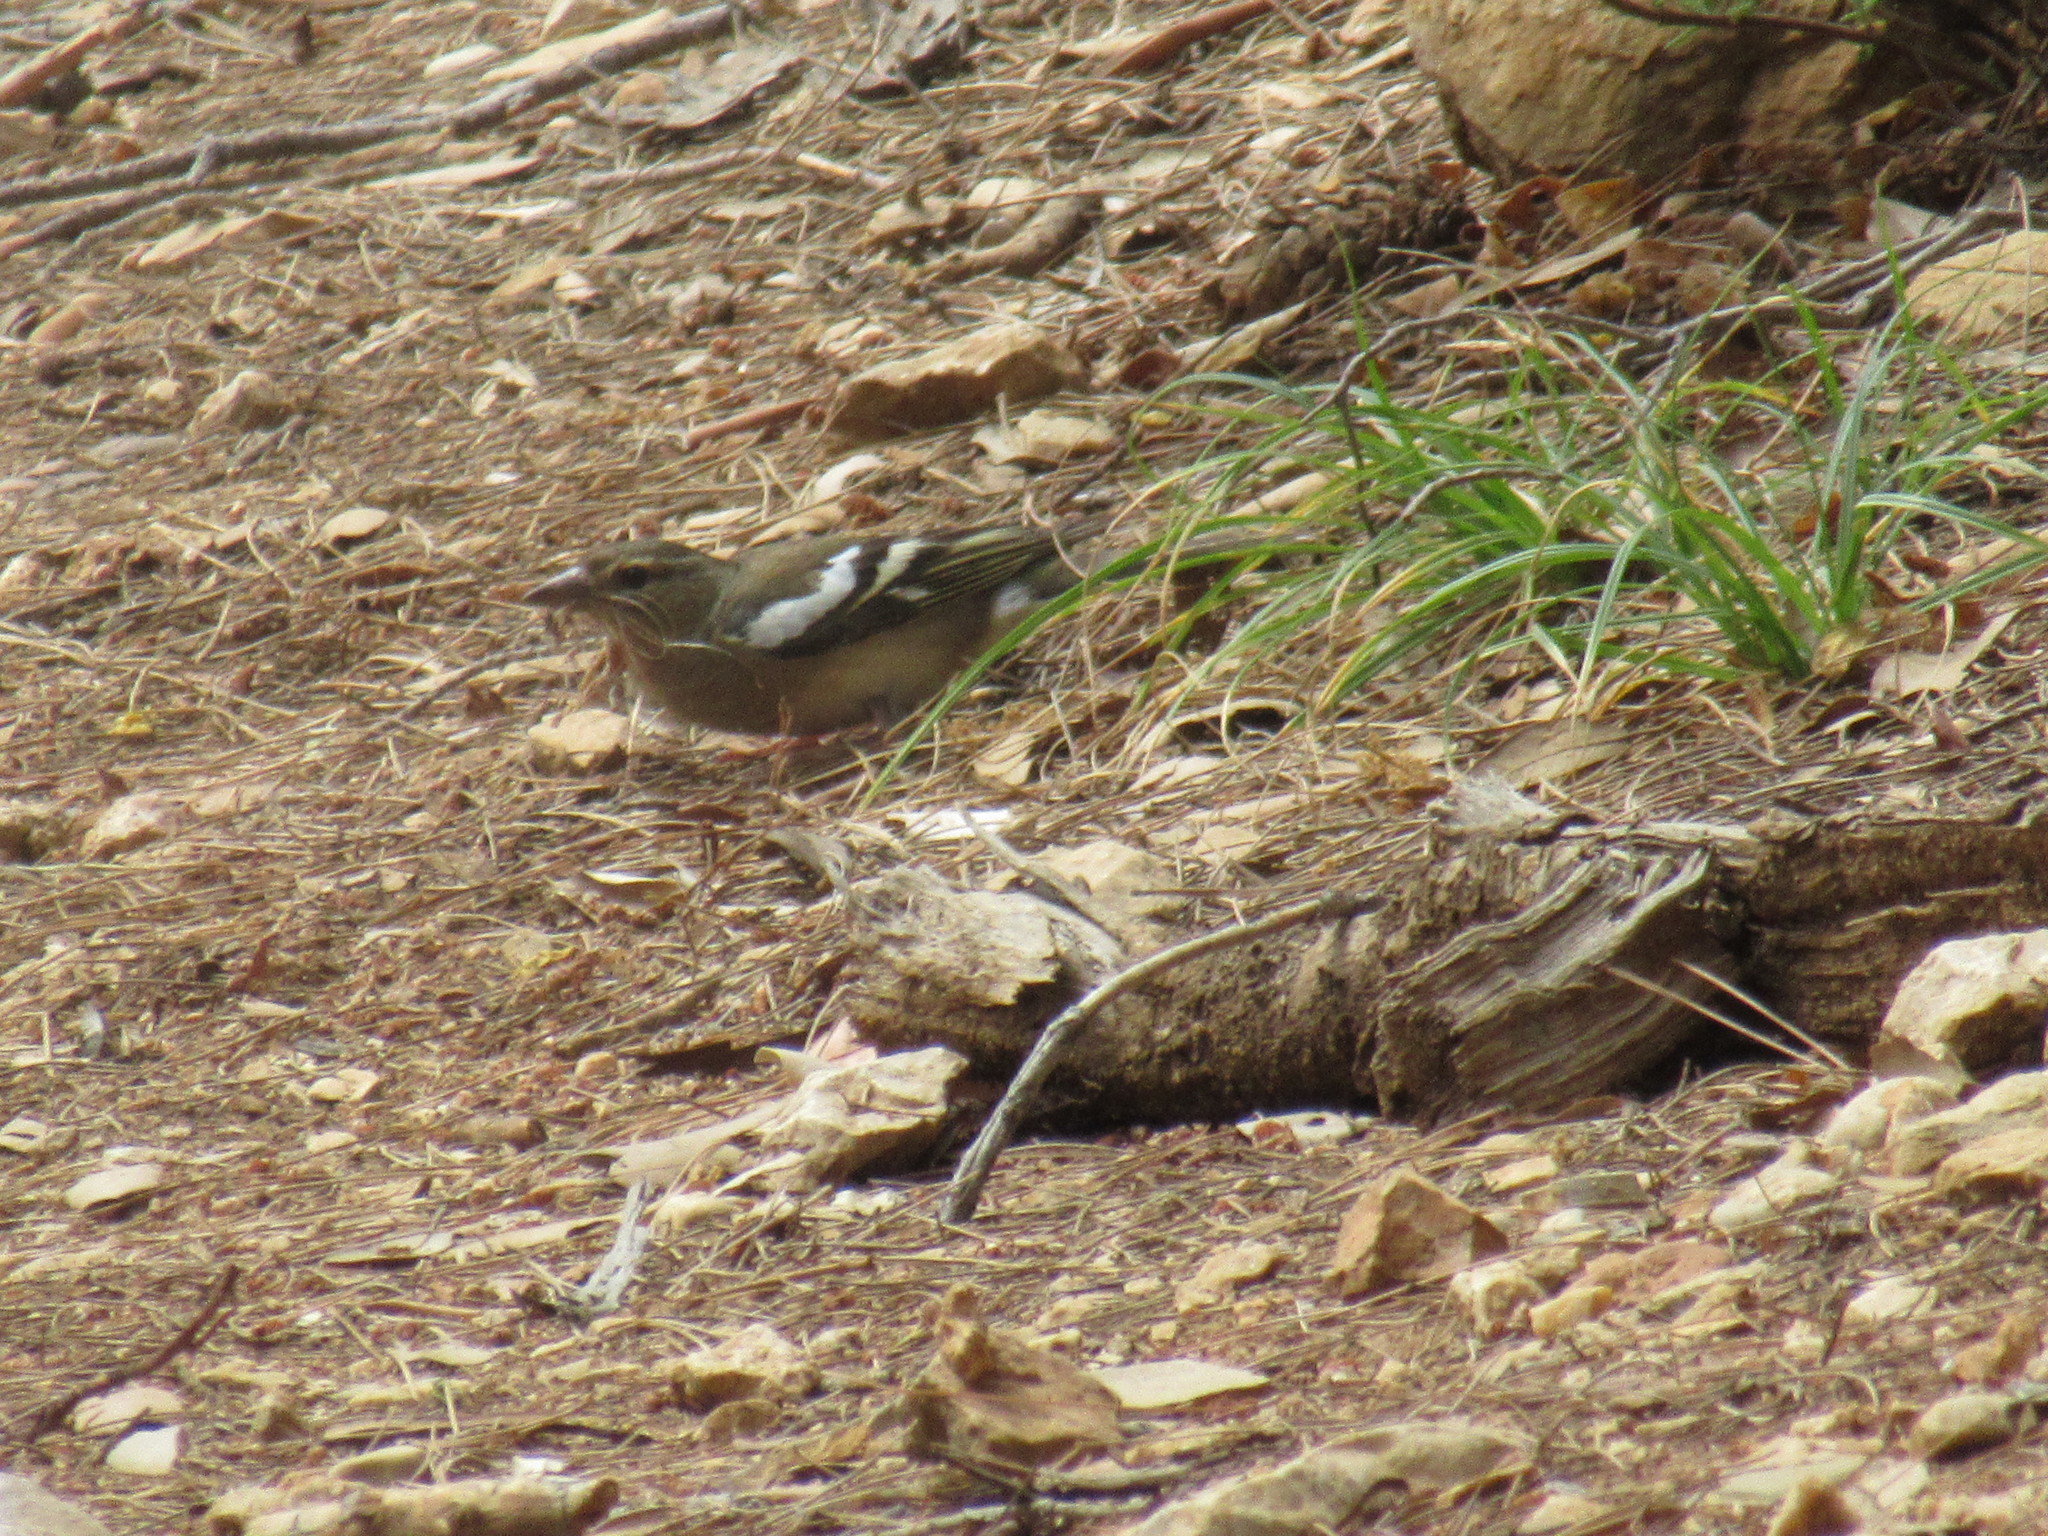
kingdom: Animalia
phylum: Chordata
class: Aves
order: Passeriformes
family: Fringillidae
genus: Fringilla
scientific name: Fringilla coelebs
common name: Common chaffinch
